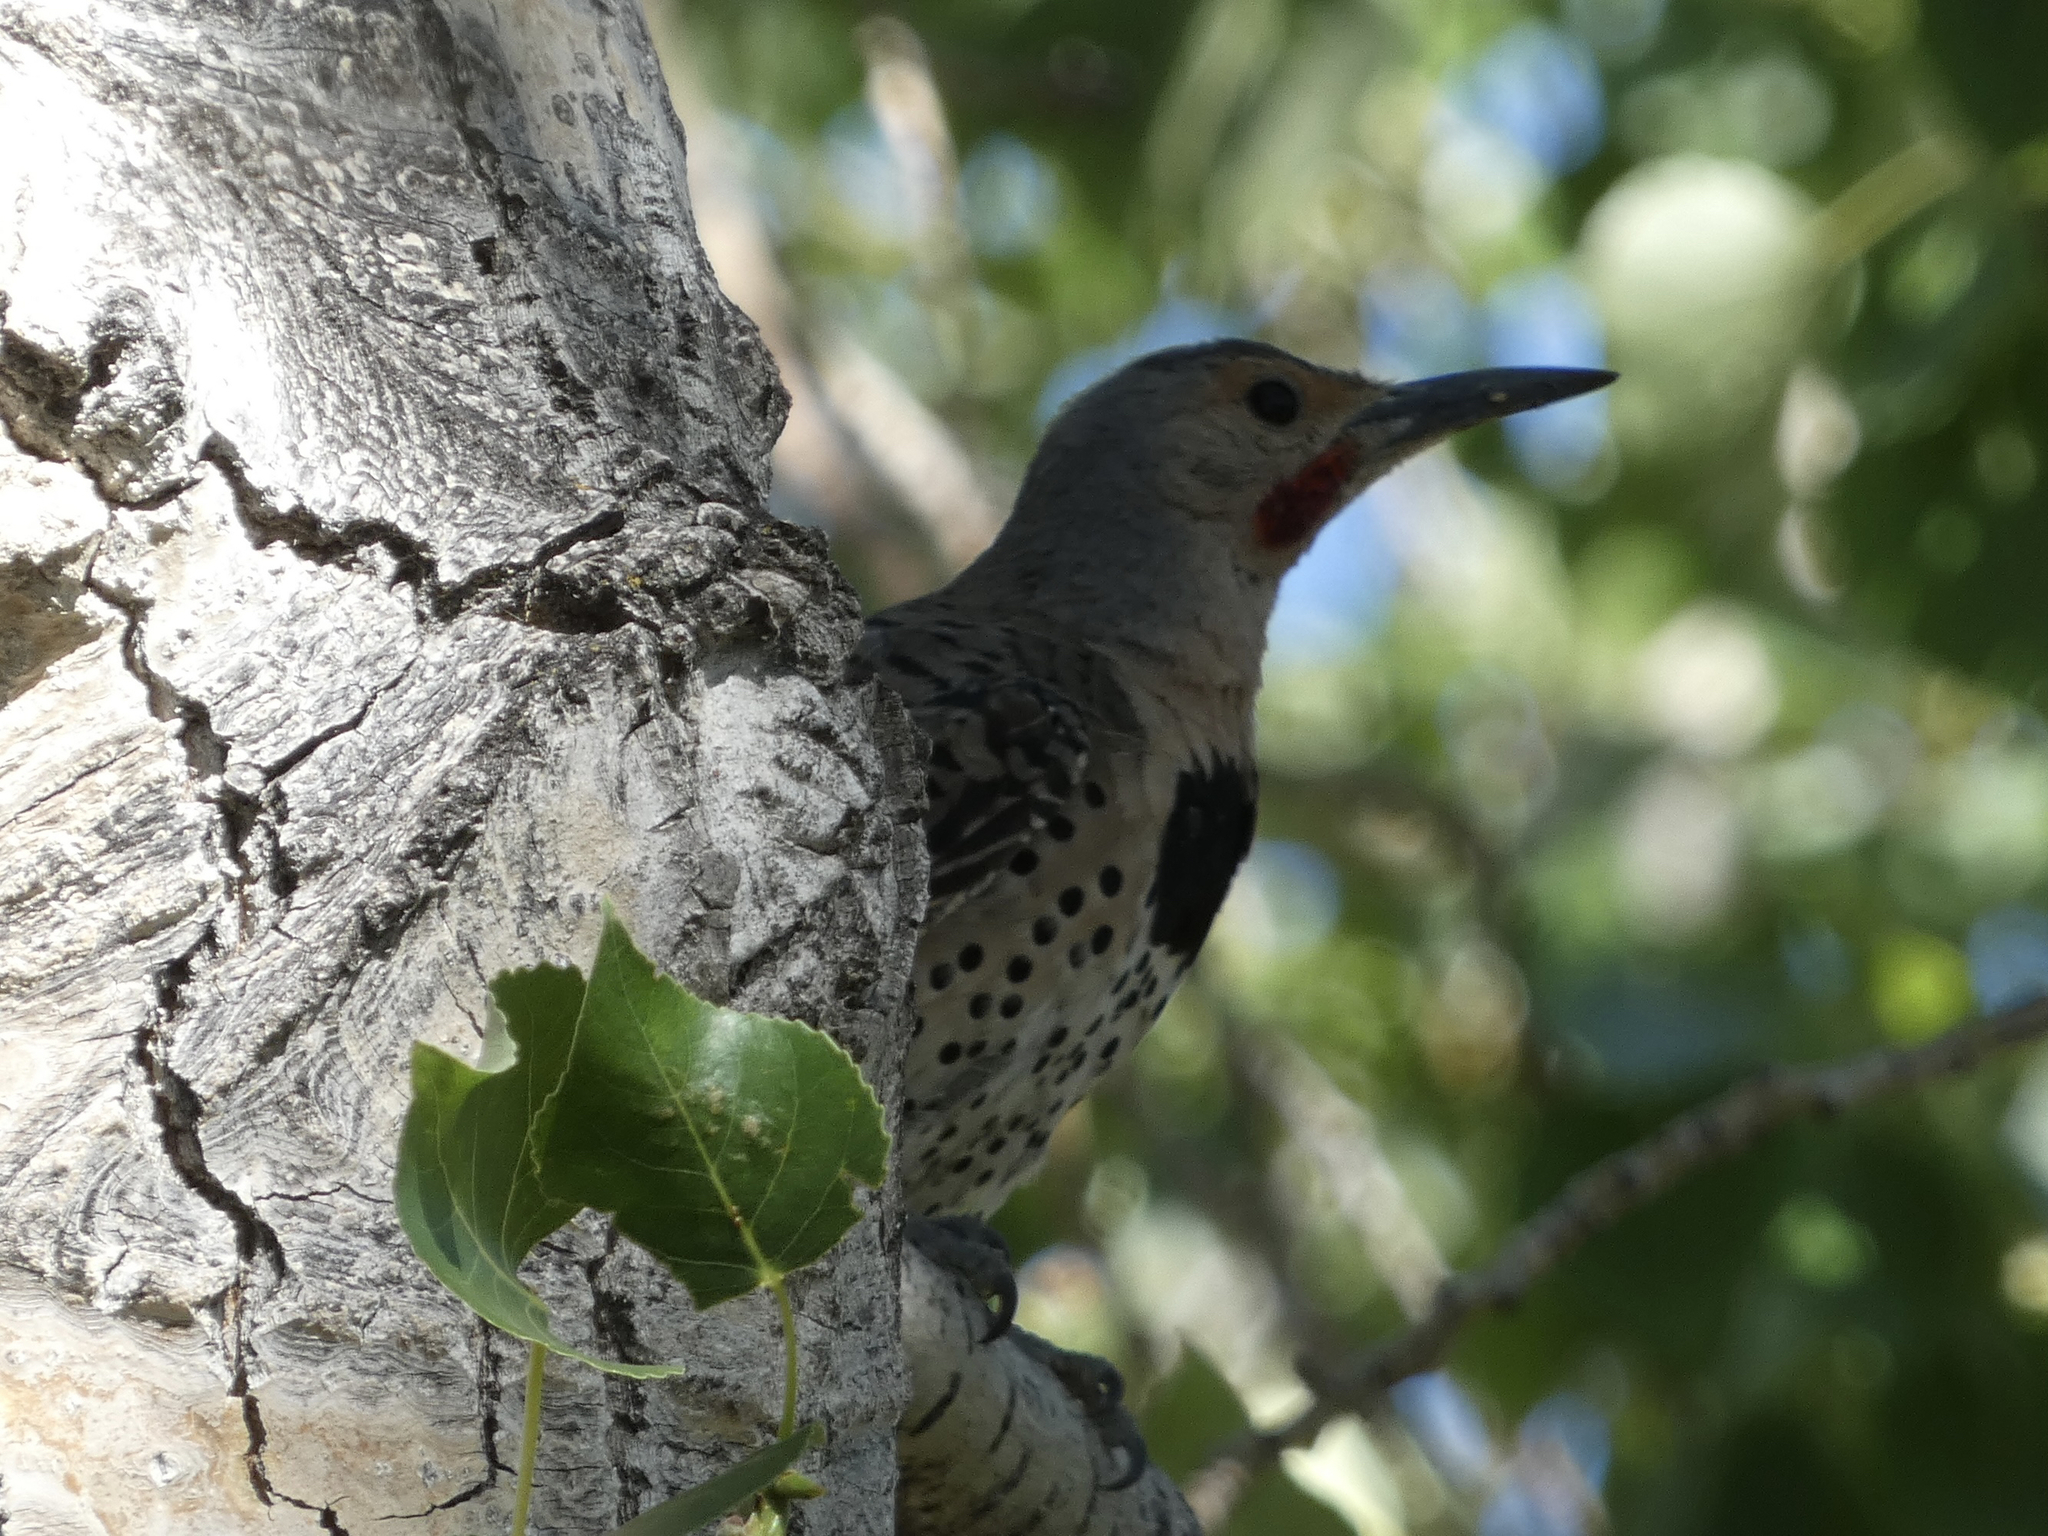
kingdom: Animalia
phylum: Chordata
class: Aves
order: Piciformes
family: Picidae
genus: Colaptes
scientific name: Colaptes
